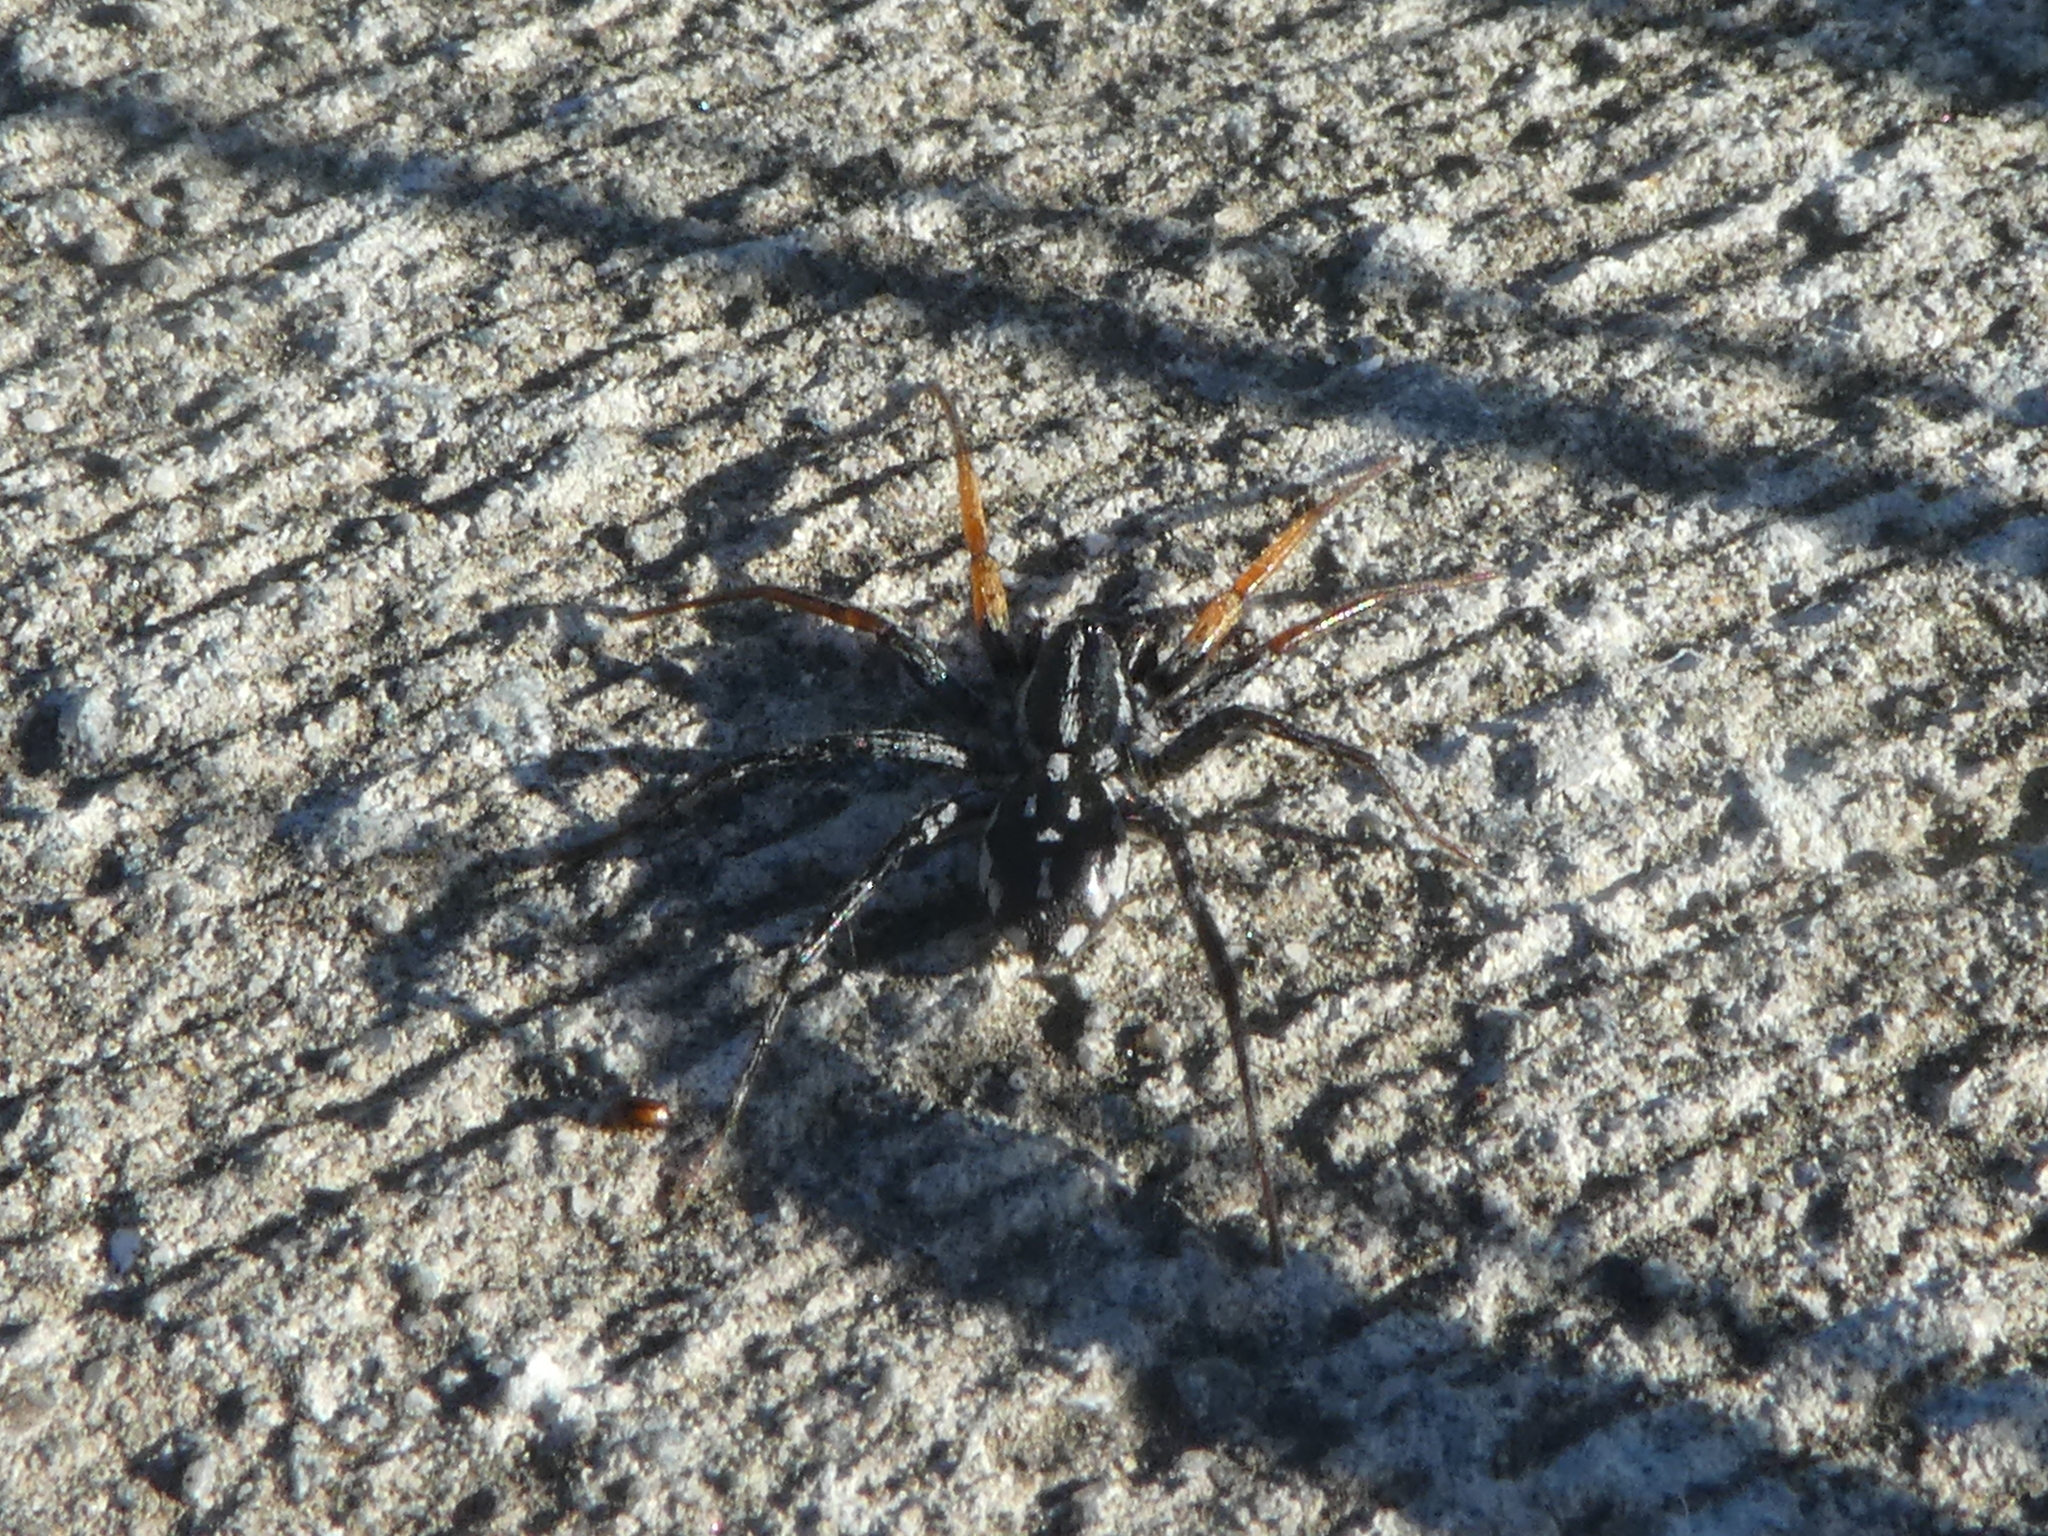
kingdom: Animalia
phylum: Arthropoda
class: Arachnida
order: Araneae
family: Corinnidae
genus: Nyssus
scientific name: Nyssus coloripes
